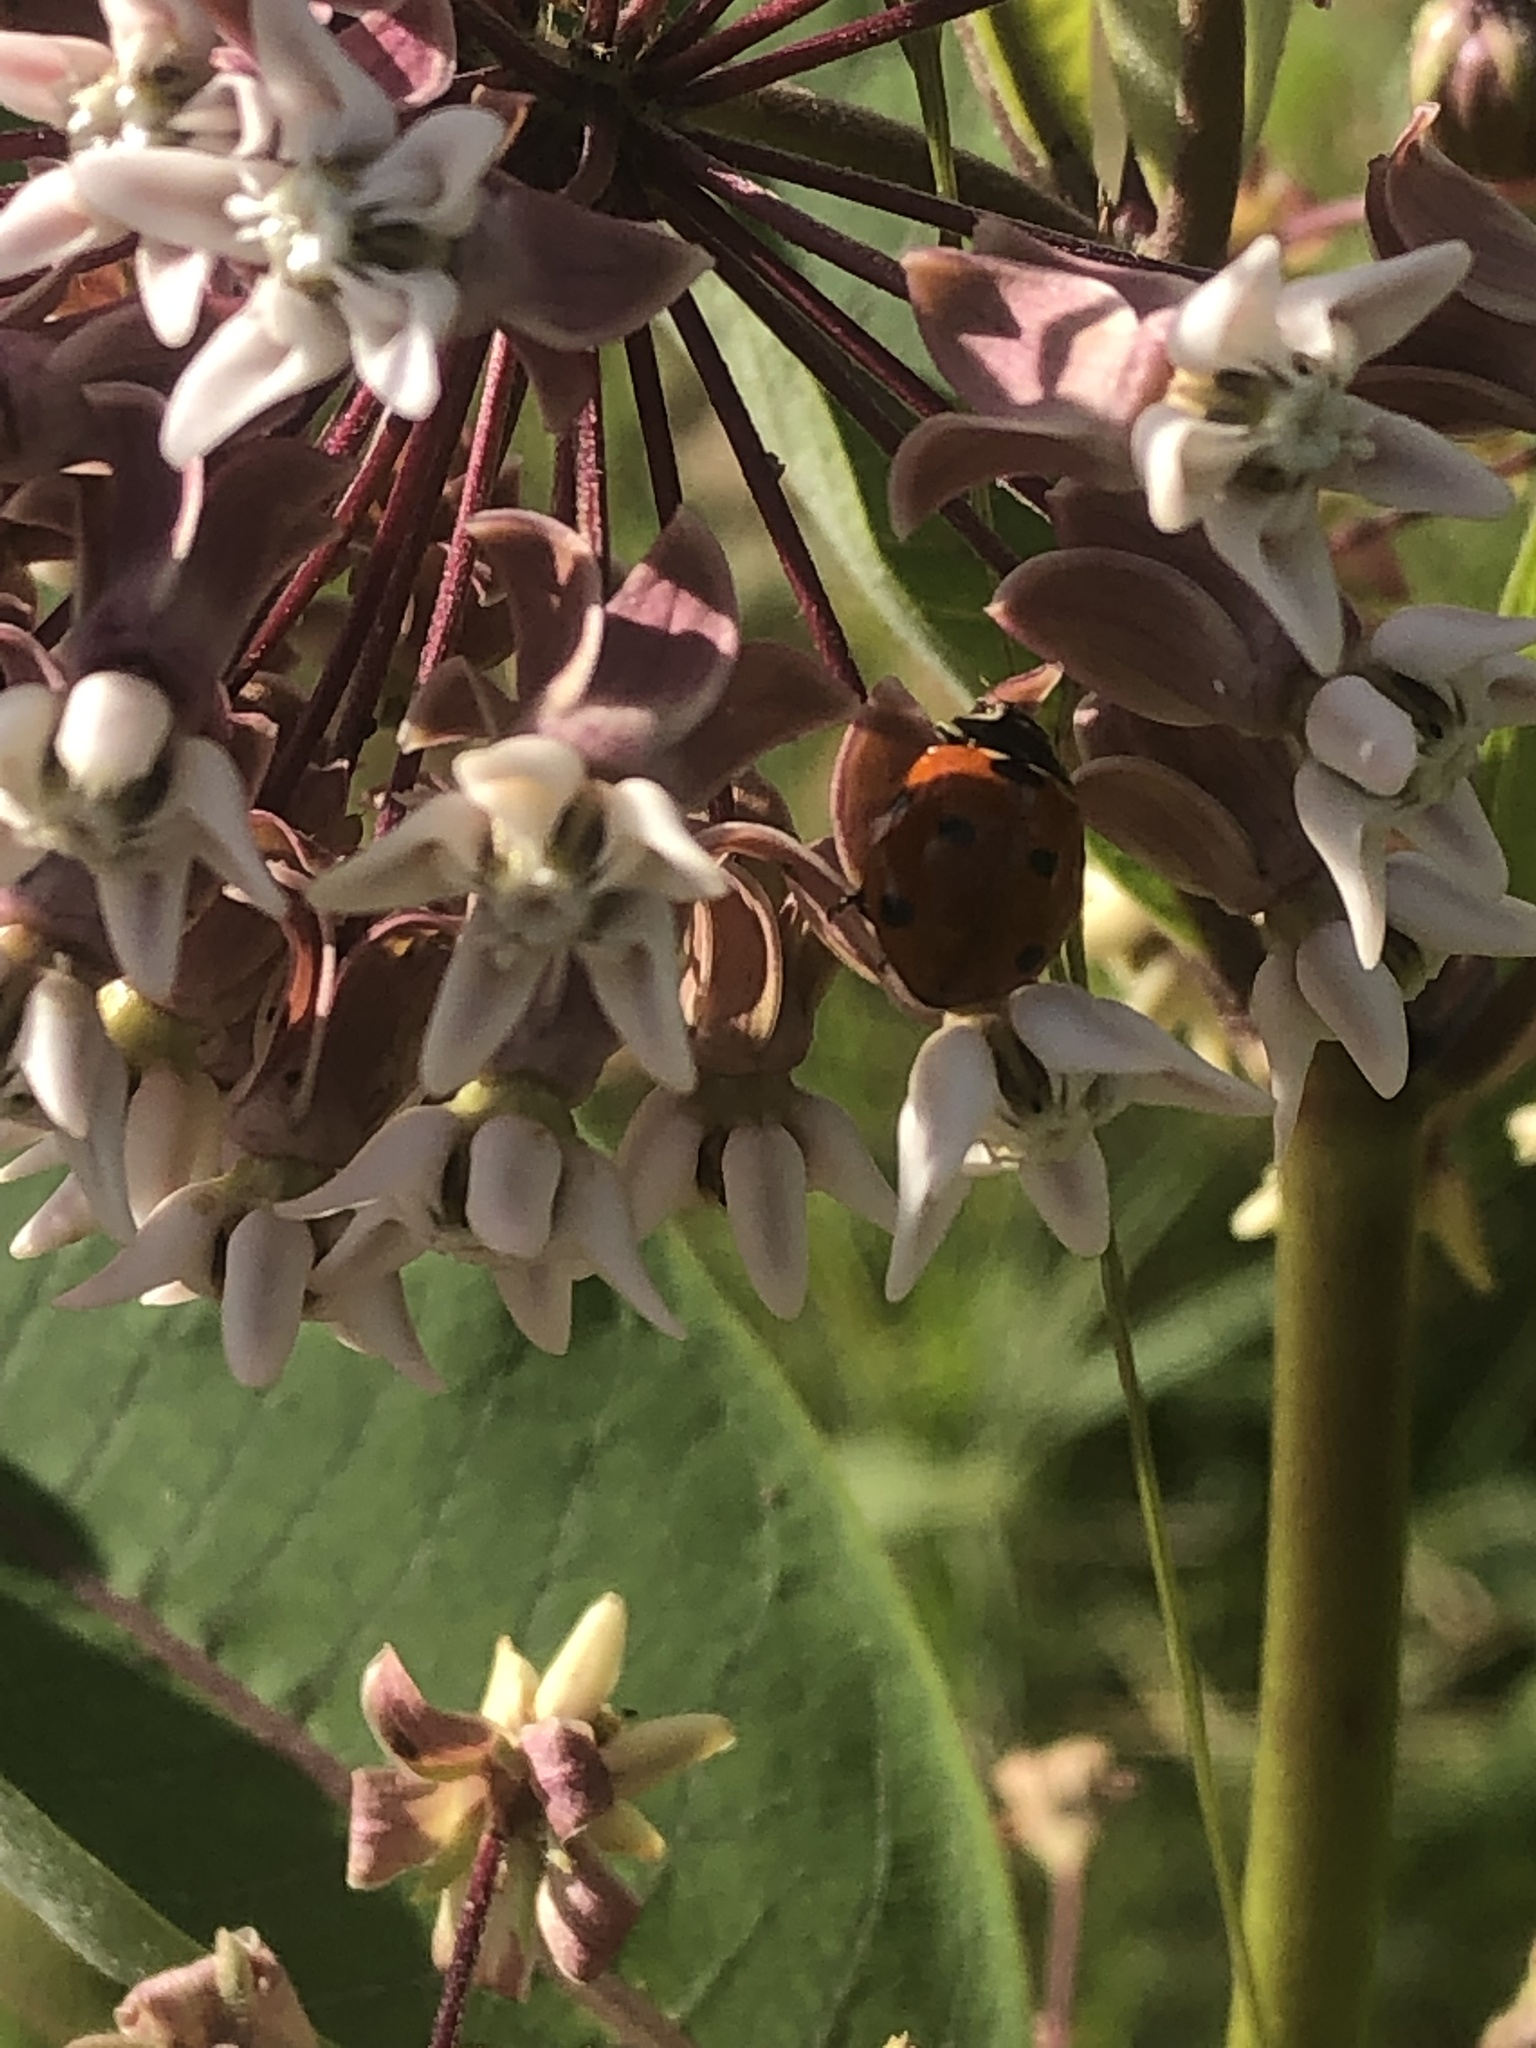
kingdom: Animalia
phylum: Arthropoda
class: Insecta
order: Coleoptera
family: Coccinellidae
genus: Coccinella
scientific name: Coccinella septempunctata
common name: Sevenspotted lady beetle
